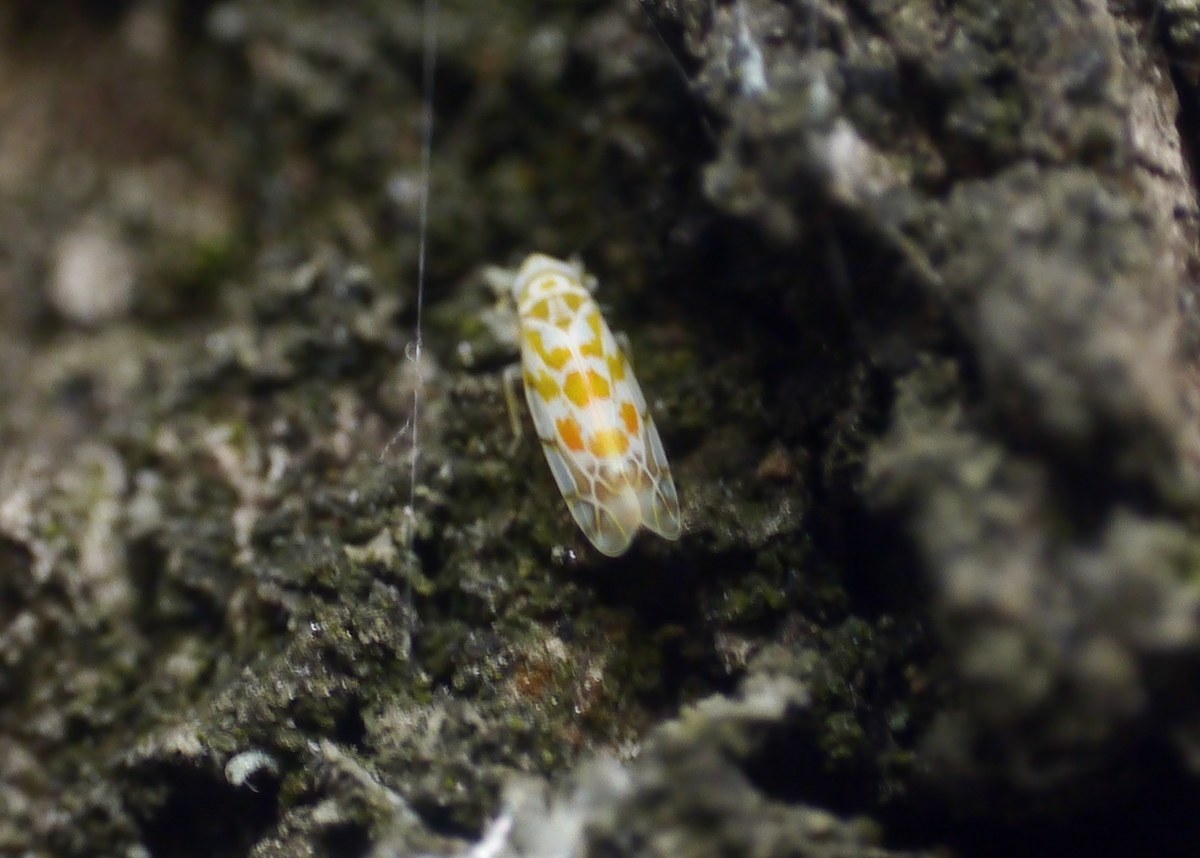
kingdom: Animalia
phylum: Arthropoda
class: Insecta
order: Hemiptera
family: Cicadellidae
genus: Typhlocyba
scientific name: Typhlocyba quercus
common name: Leafhopper
